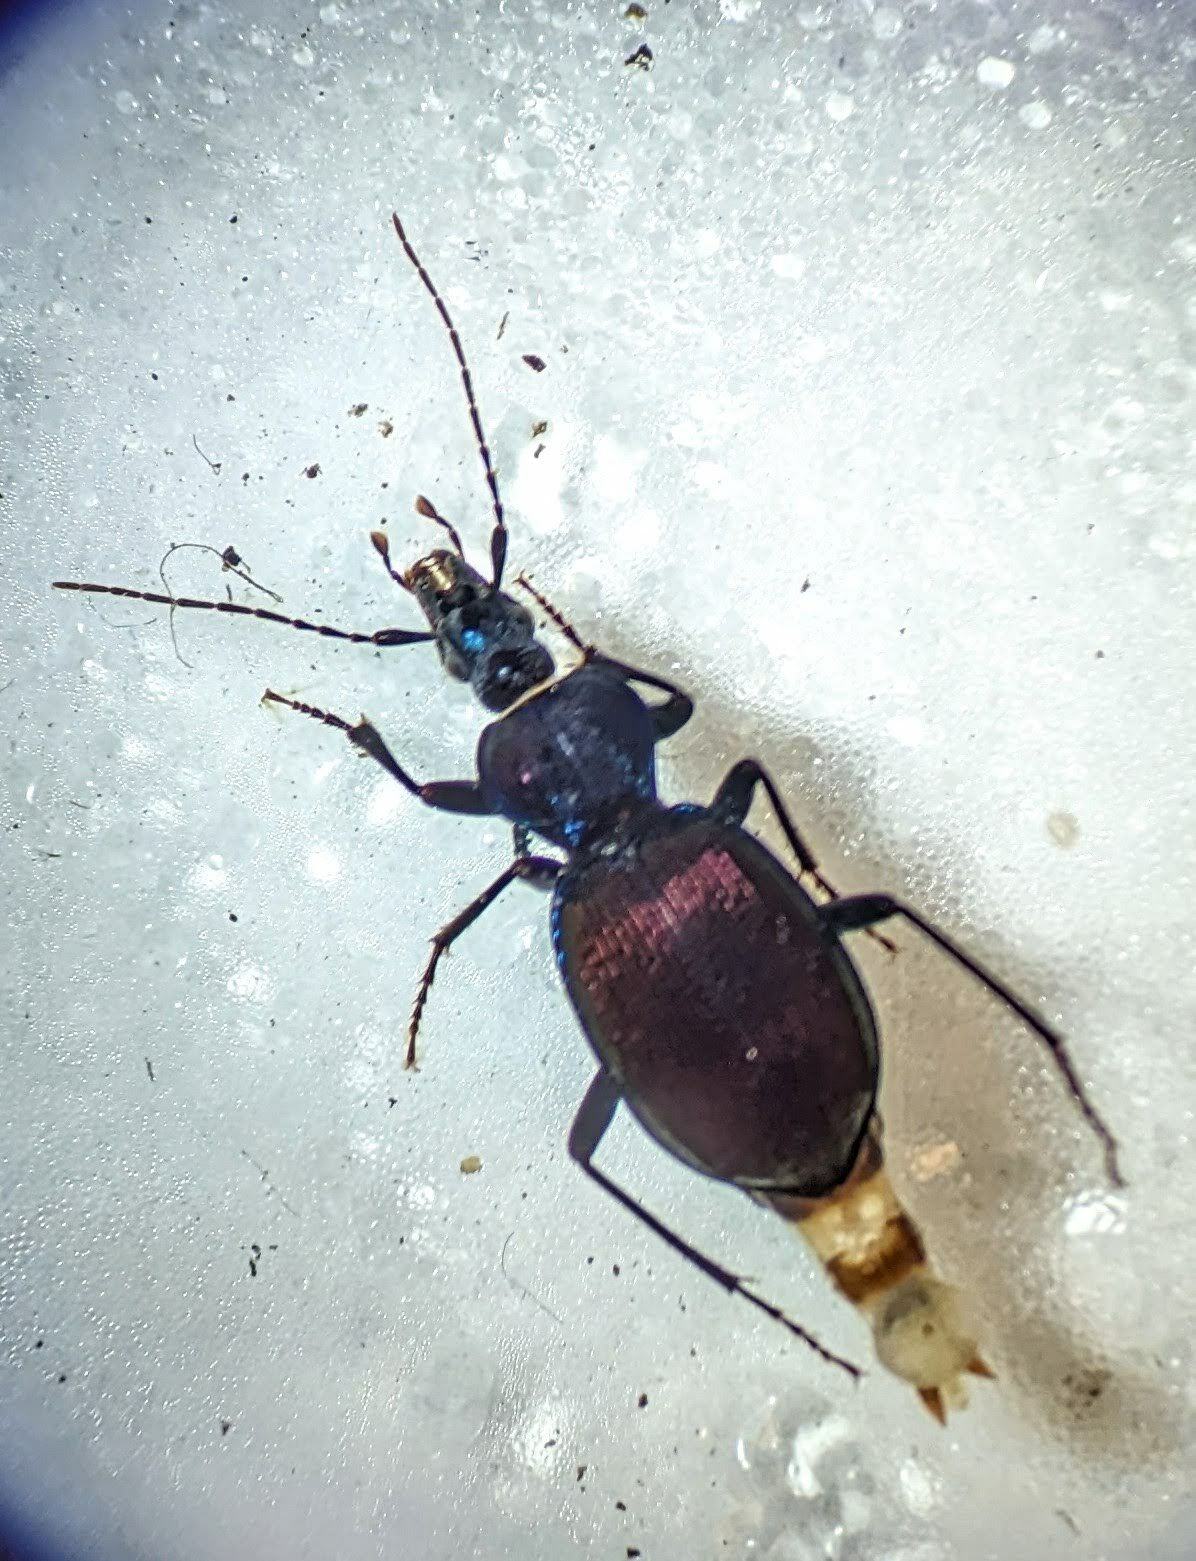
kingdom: Animalia
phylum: Arthropoda
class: Insecta
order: Coleoptera
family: Carabidae
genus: Sphaeroderus
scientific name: Sphaeroderus canadensis
